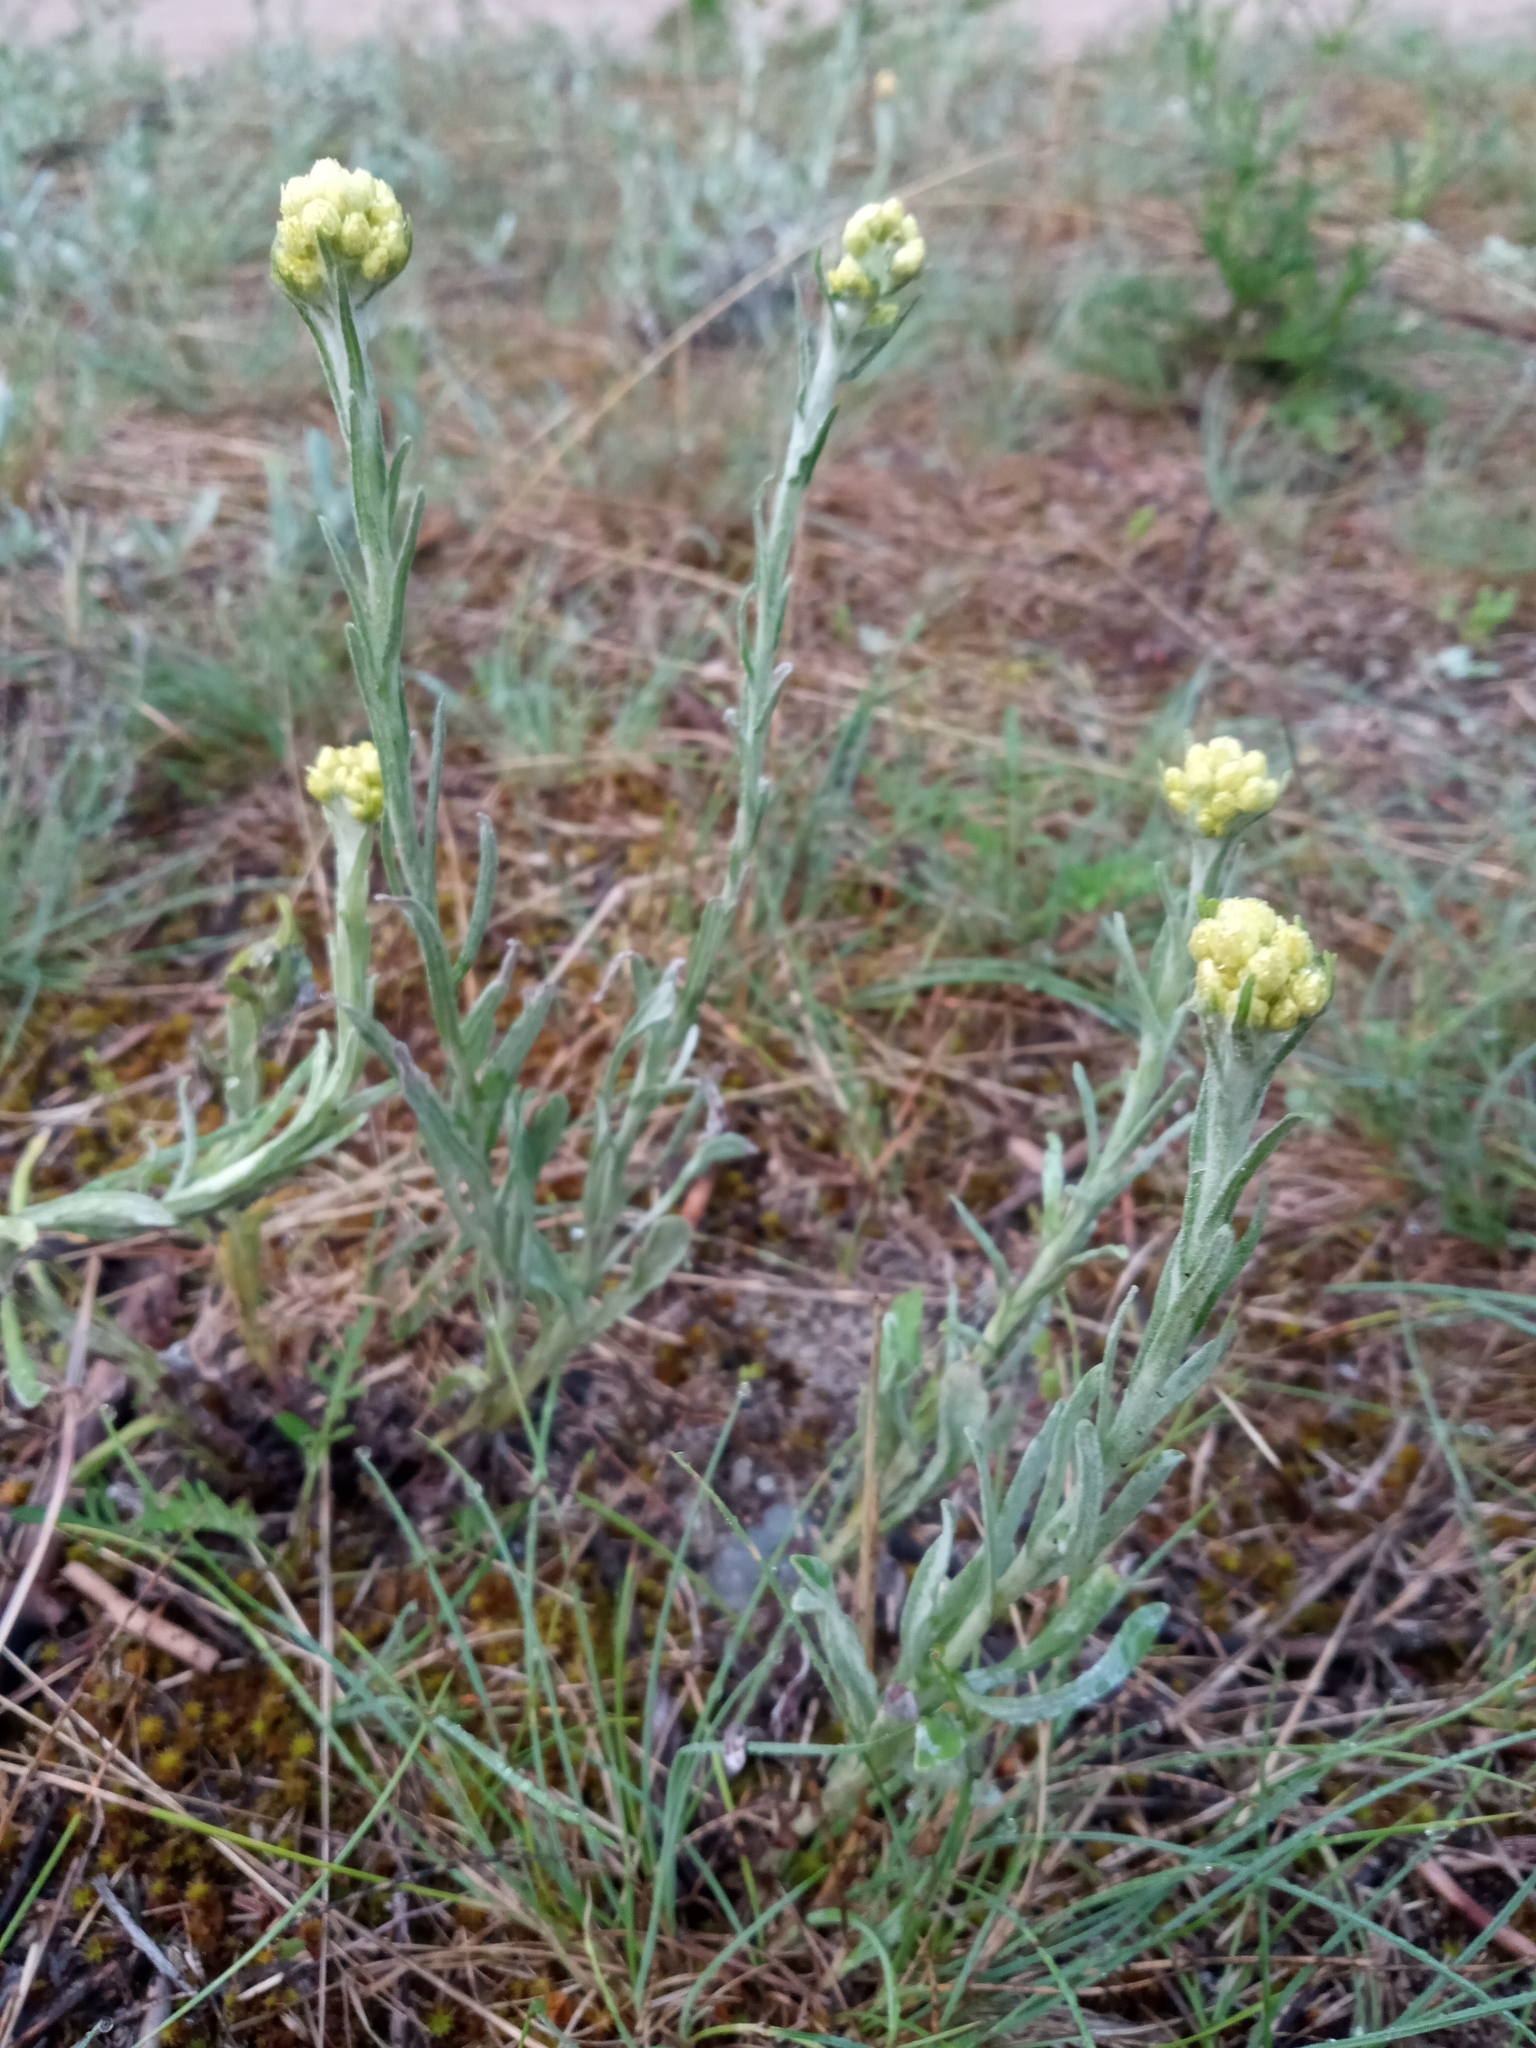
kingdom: Plantae
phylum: Tracheophyta
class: Magnoliopsida
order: Asterales
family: Asteraceae
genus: Helichrysum
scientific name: Helichrysum arenarium
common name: Strawflower
